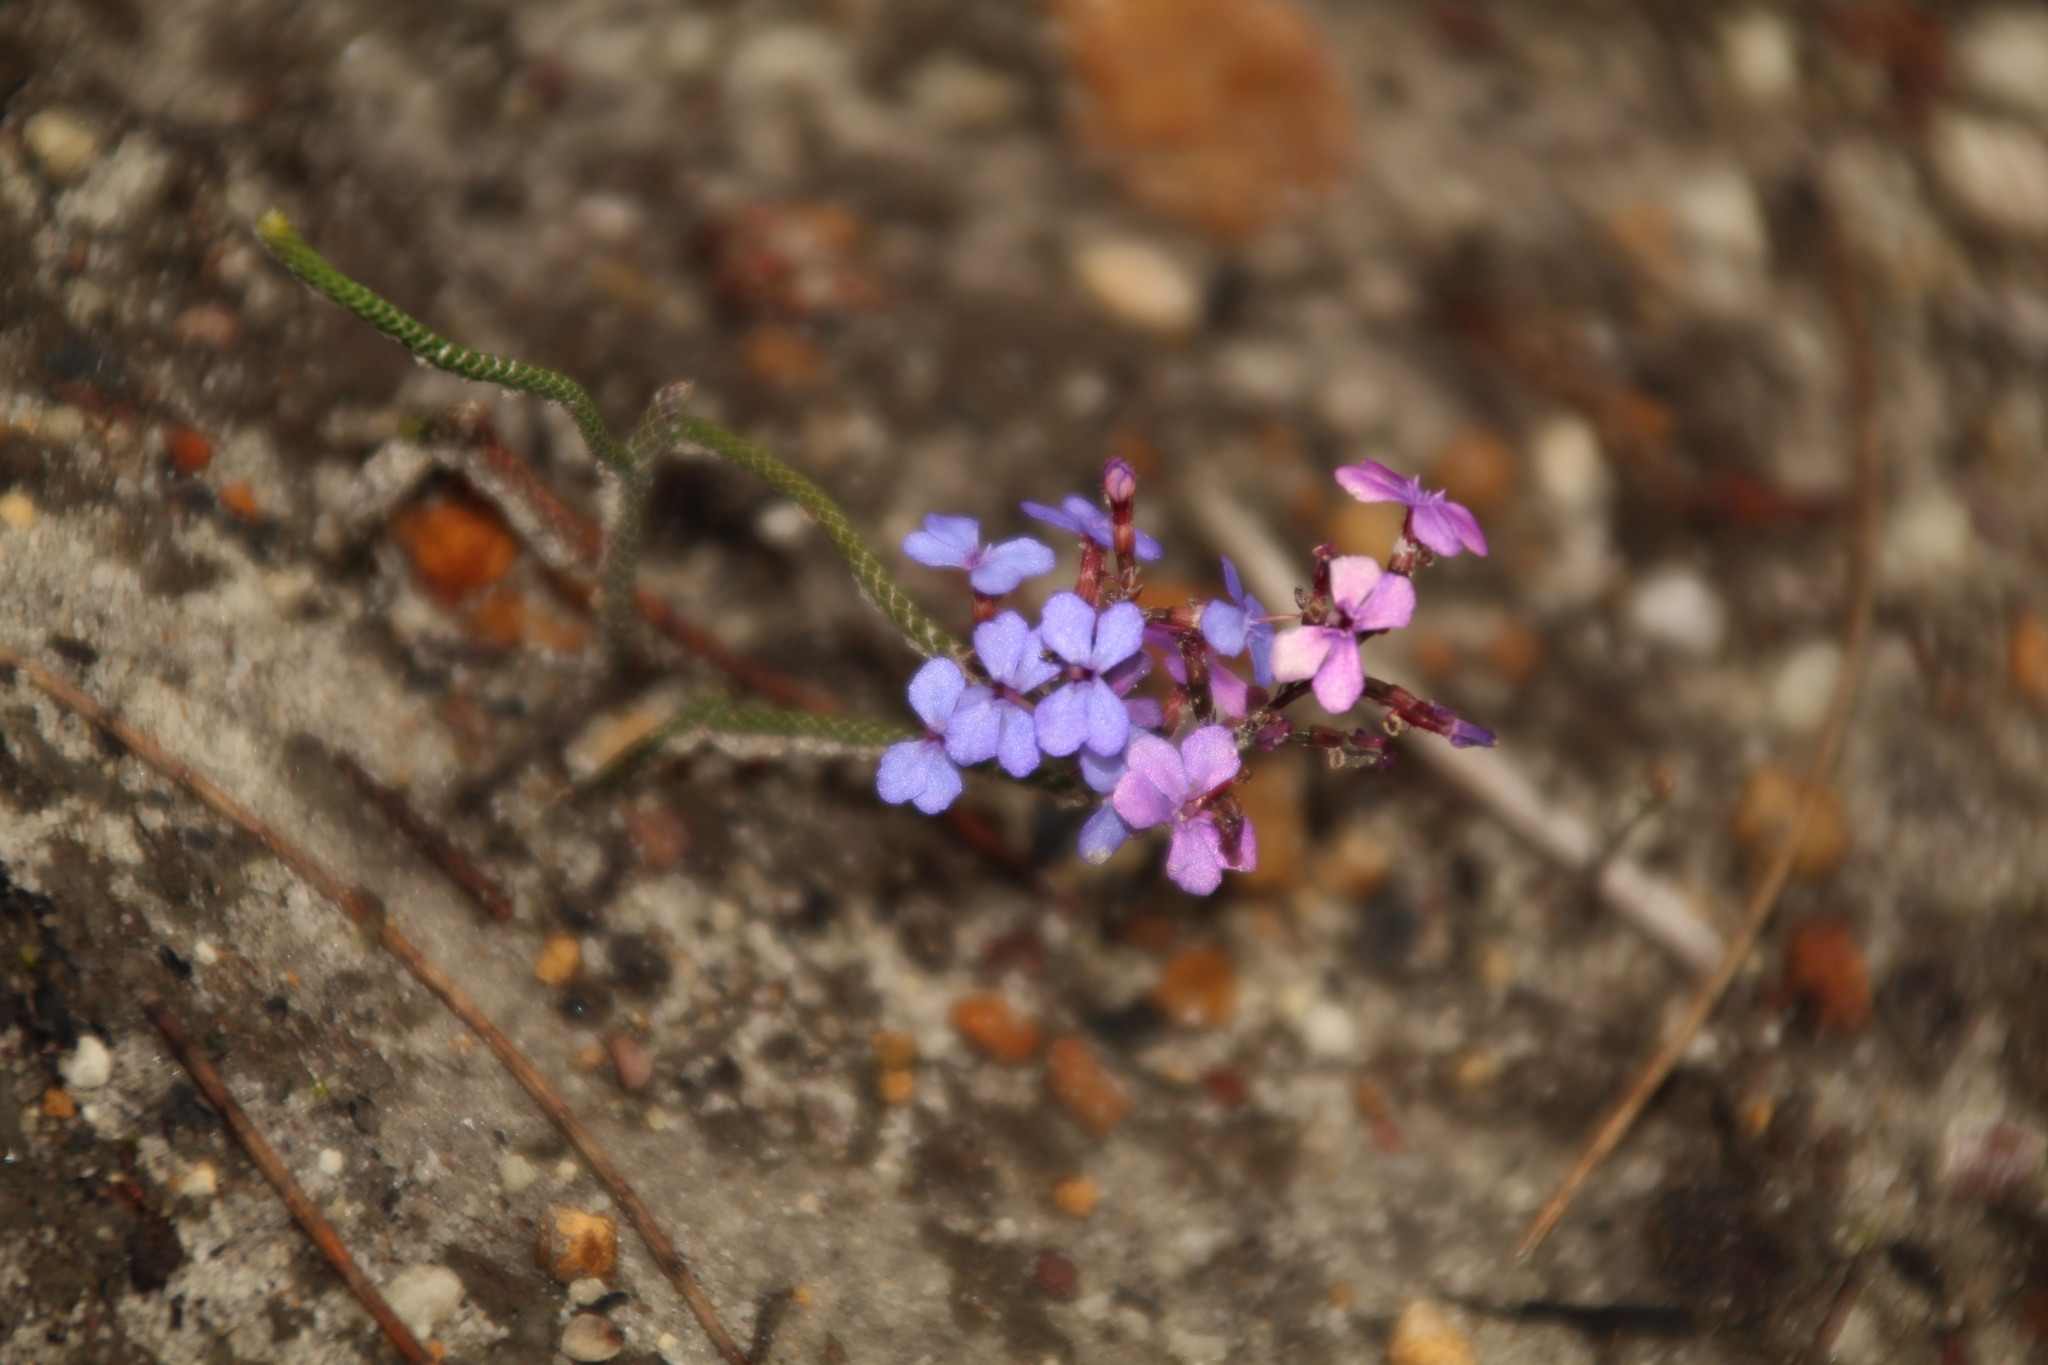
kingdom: Plantae
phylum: Tracheophyta
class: Magnoliopsida
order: Asterales
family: Stylidiaceae
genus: Stylidium
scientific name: Stylidium preissii
